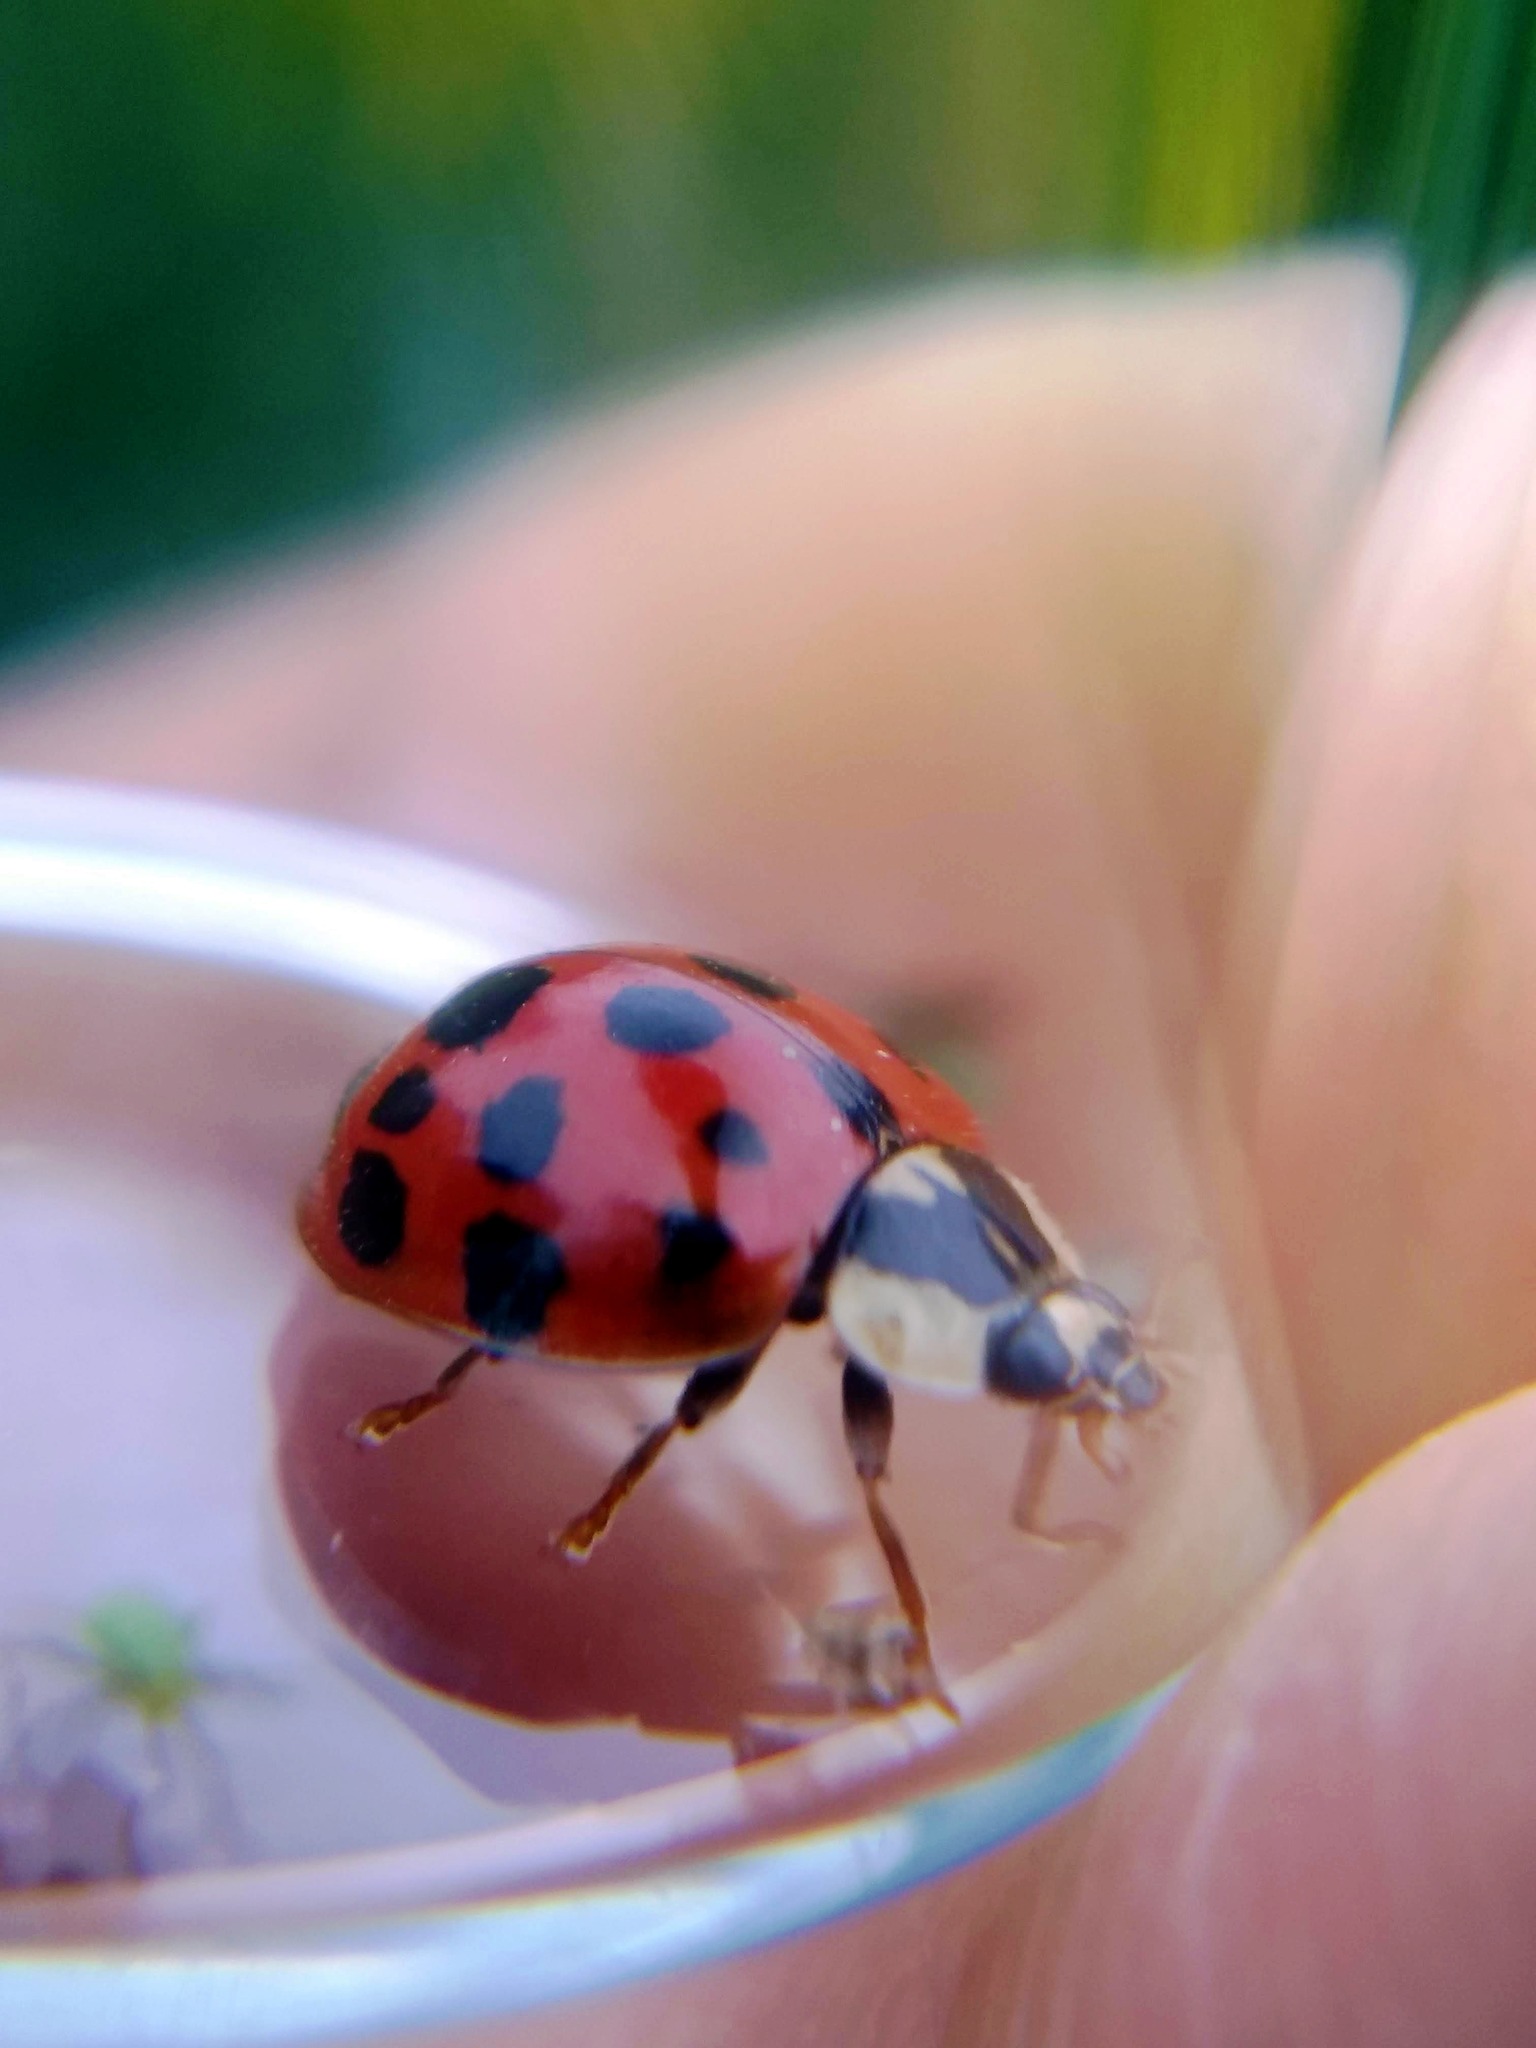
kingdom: Animalia
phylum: Arthropoda
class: Insecta
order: Coleoptera
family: Coccinellidae
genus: Harmonia
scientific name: Harmonia axyridis
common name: Harlequin ladybird
